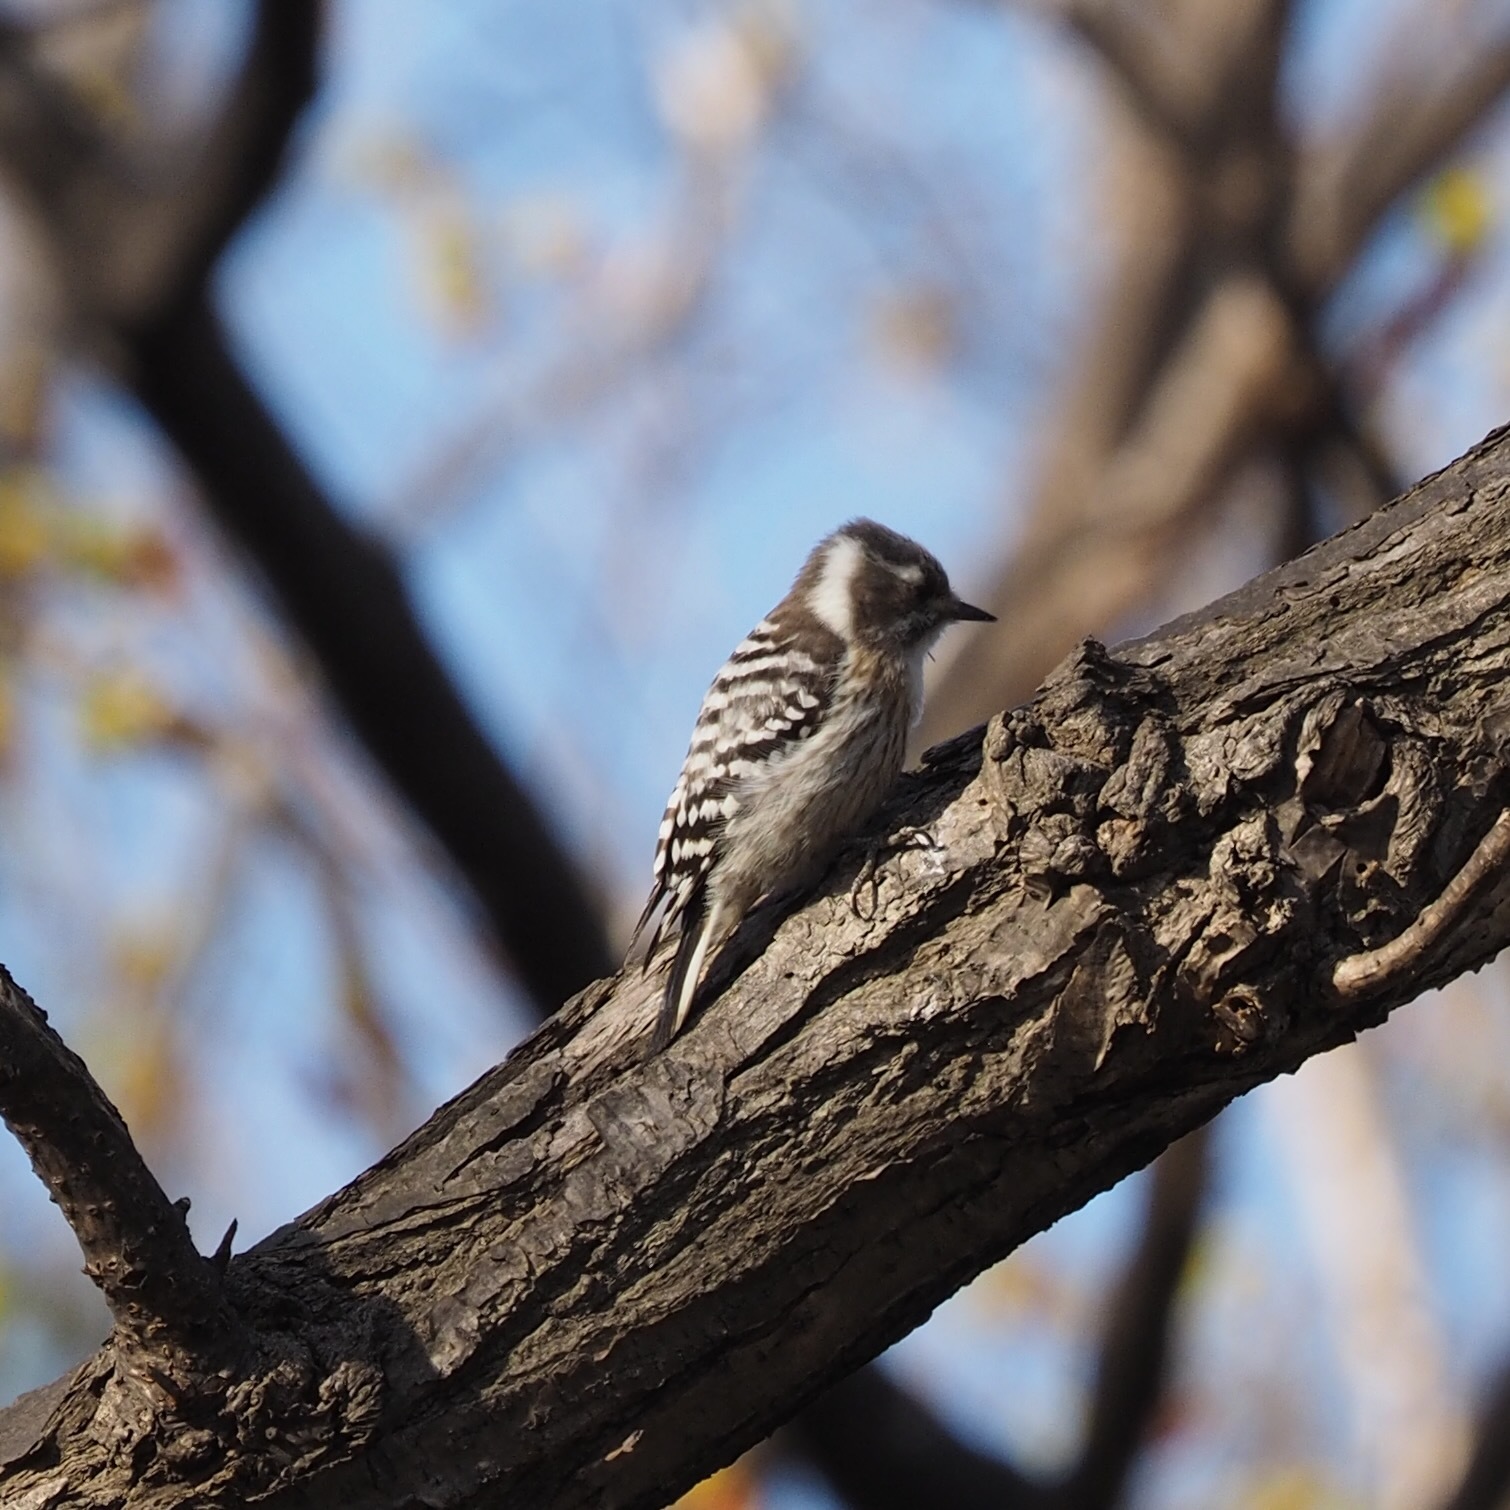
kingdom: Animalia
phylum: Chordata
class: Aves
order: Piciformes
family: Picidae
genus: Yungipicus
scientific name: Yungipicus kizuki
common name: Japanese pygmy woodpecker
